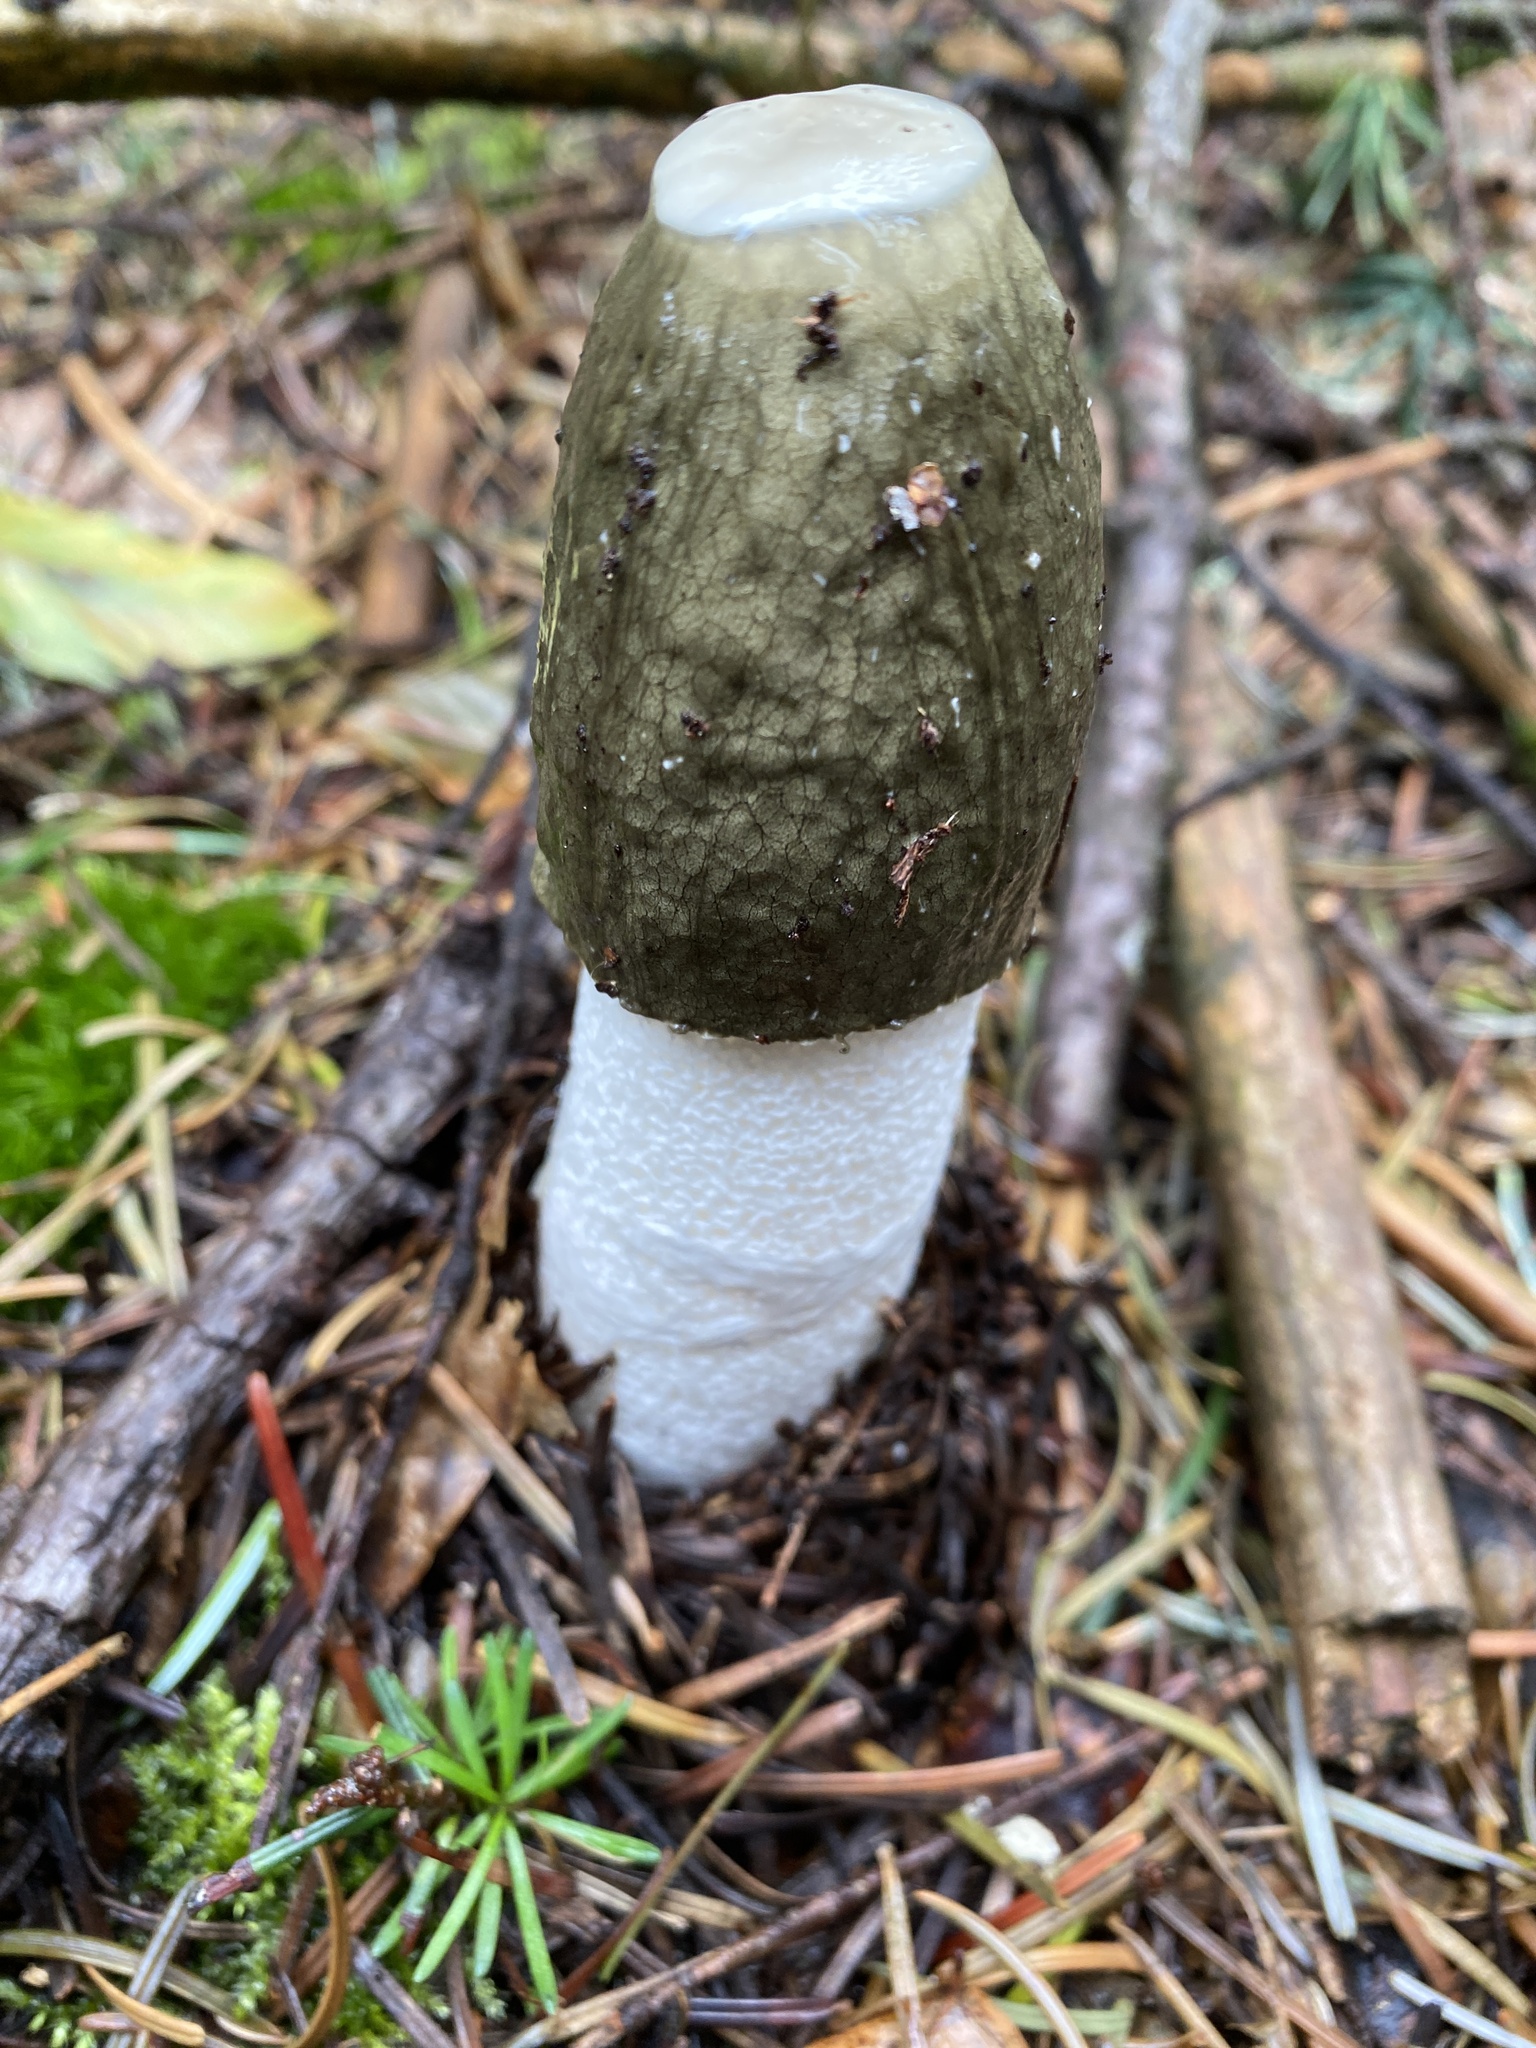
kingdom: Fungi
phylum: Basidiomycota
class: Agaricomycetes
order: Phallales
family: Phallaceae
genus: Phallus
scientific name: Phallus impudicus
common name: Common stinkhorn
